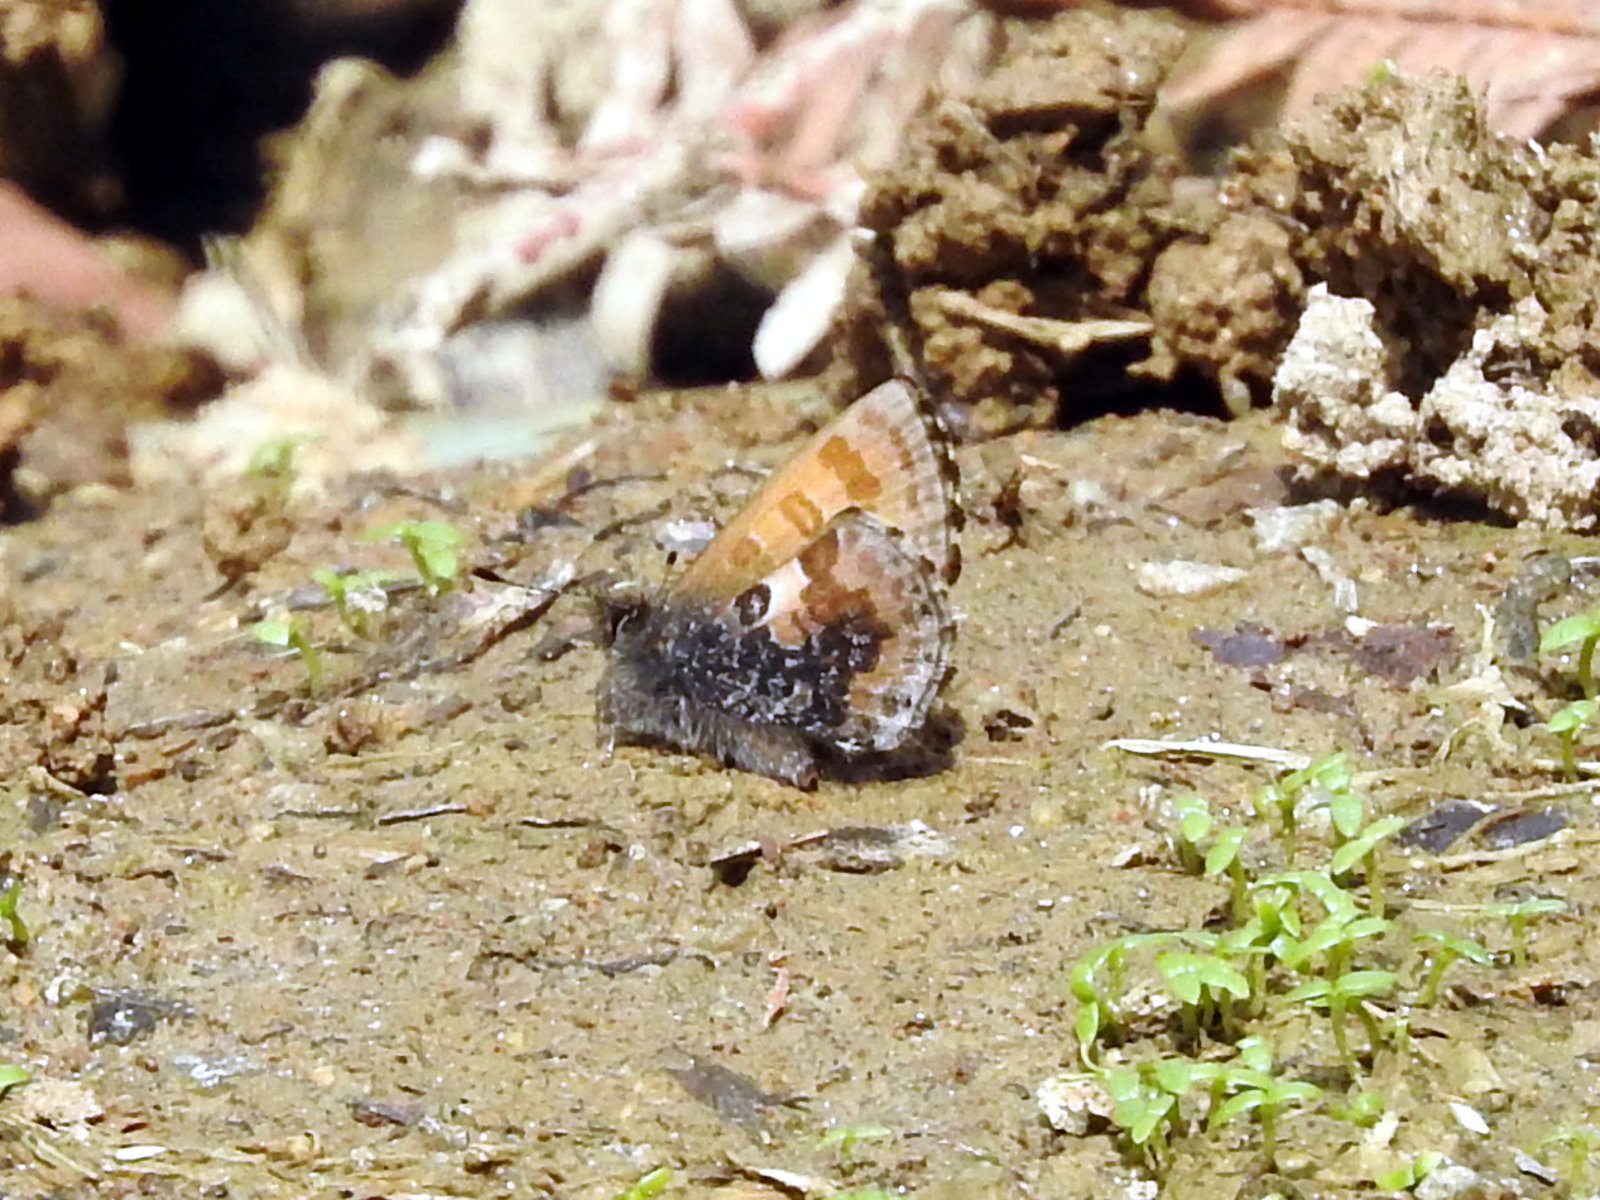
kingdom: Animalia
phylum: Arthropoda
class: Insecta
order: Lepidoptera
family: Lycaenidae
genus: Orthomiella
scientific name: Orthomiella pontis
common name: Straightwing blue
